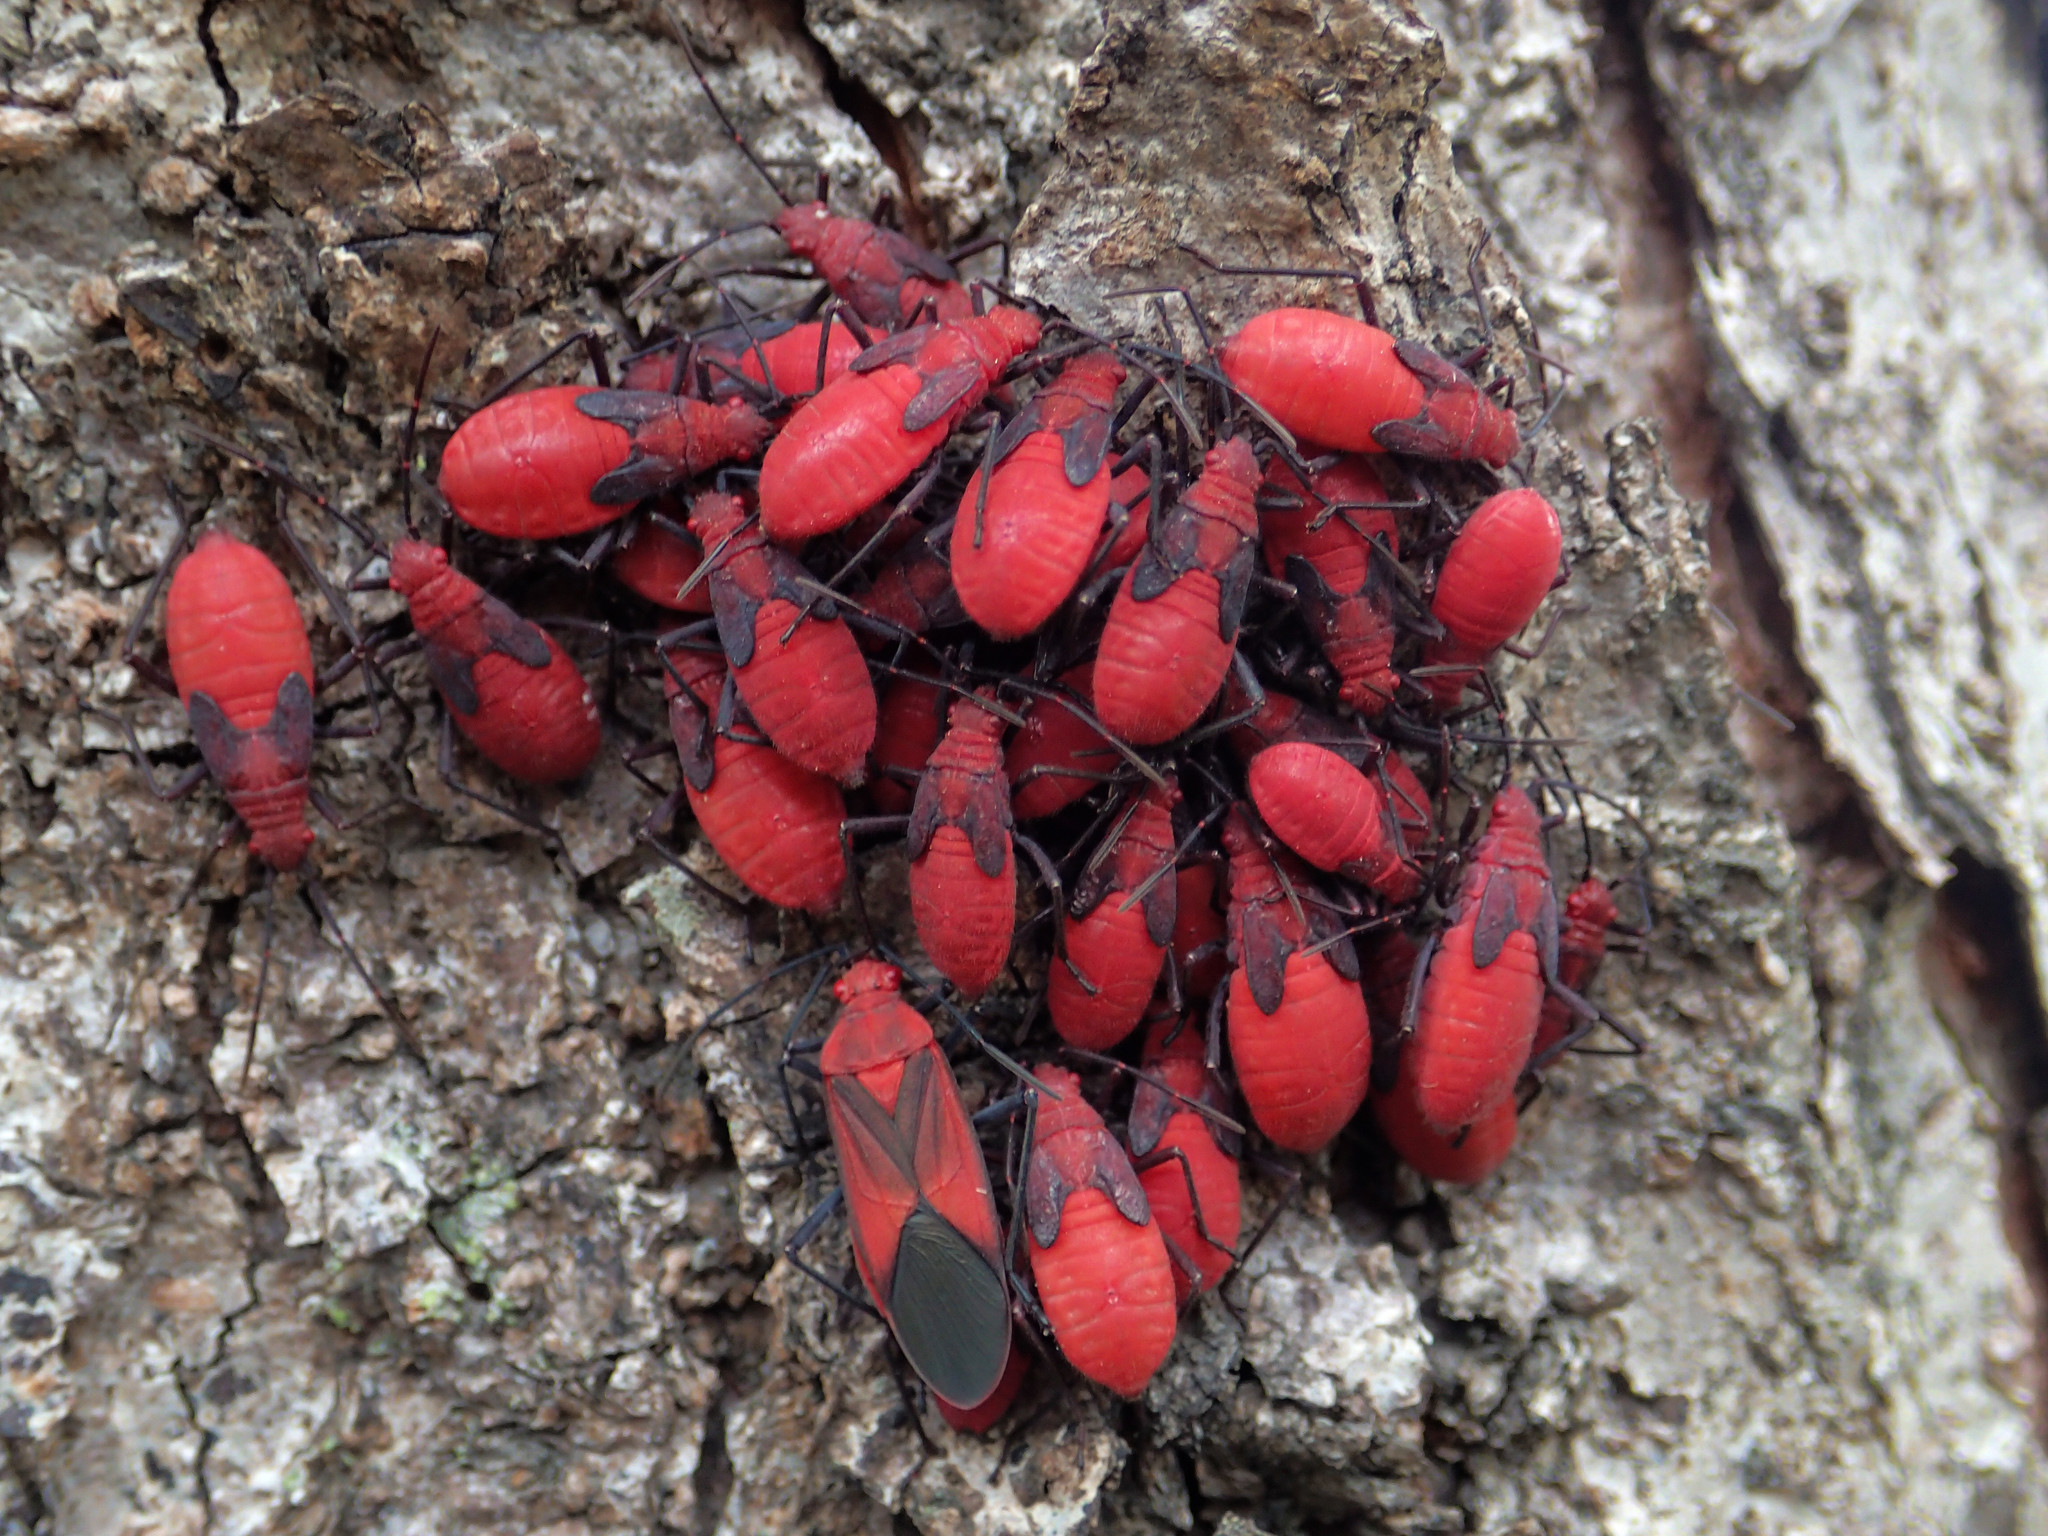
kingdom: Animalia
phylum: Arthropoda
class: Insecta
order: Hemiptera
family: Rhopalidae
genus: Leptocoris
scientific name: Leptocoris vicinus
